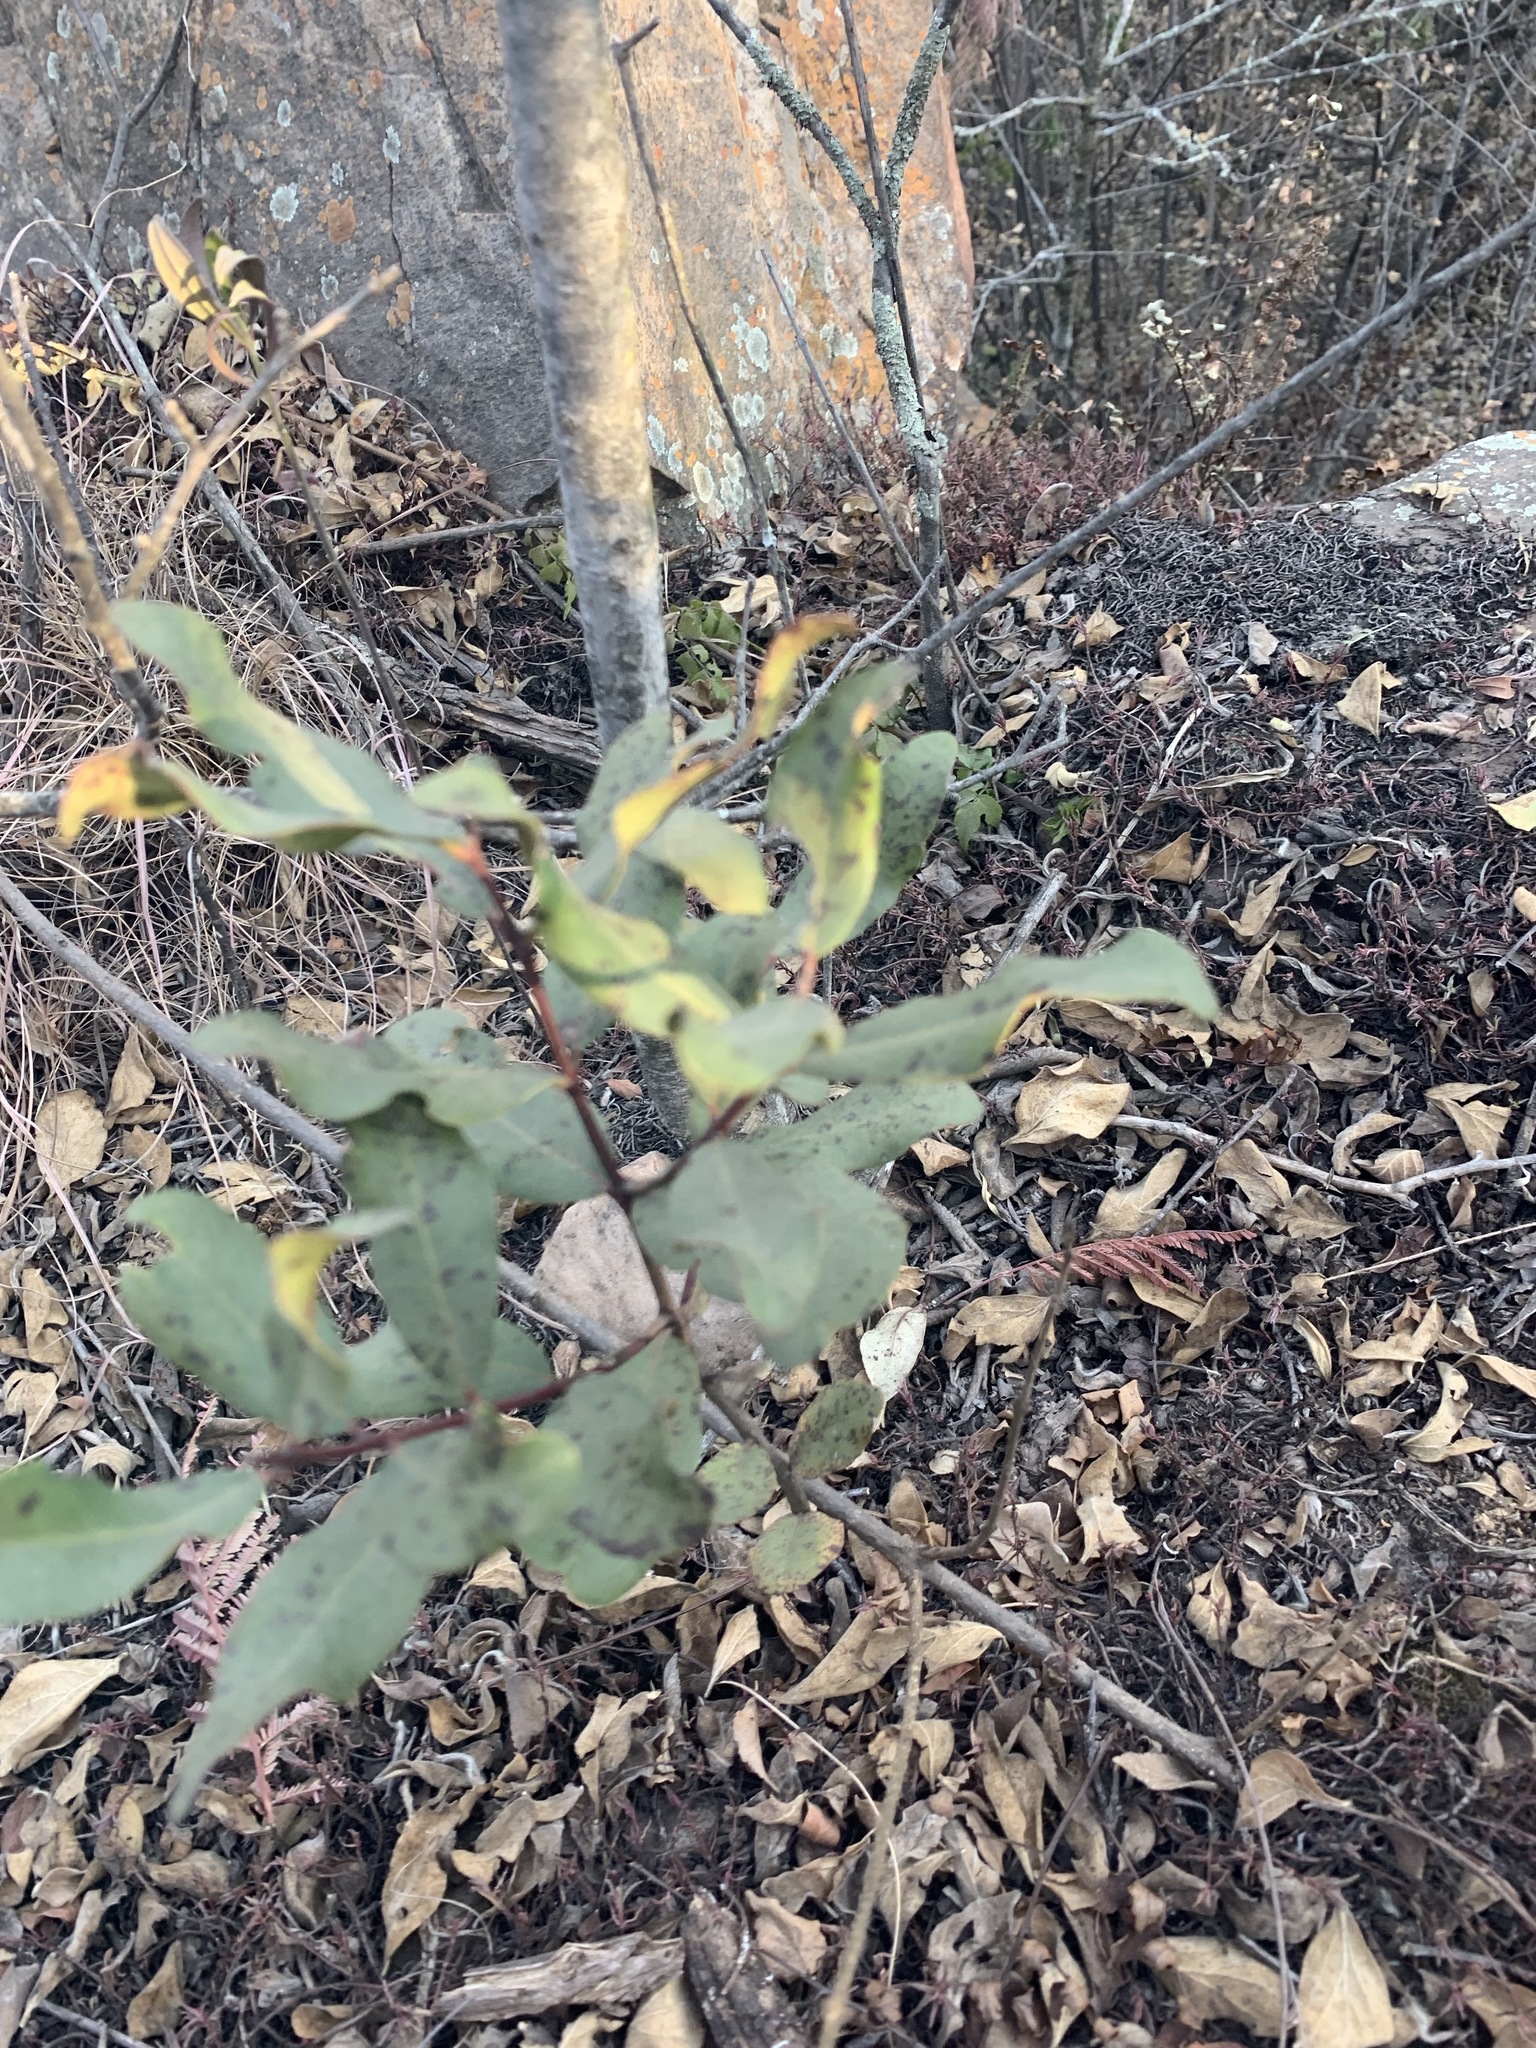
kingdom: Plantae
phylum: Tracheophyta
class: Magnoliopsida
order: Ericales
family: Ebenaceae
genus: Euclea
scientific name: Euclea crispa
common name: Blue guarri
